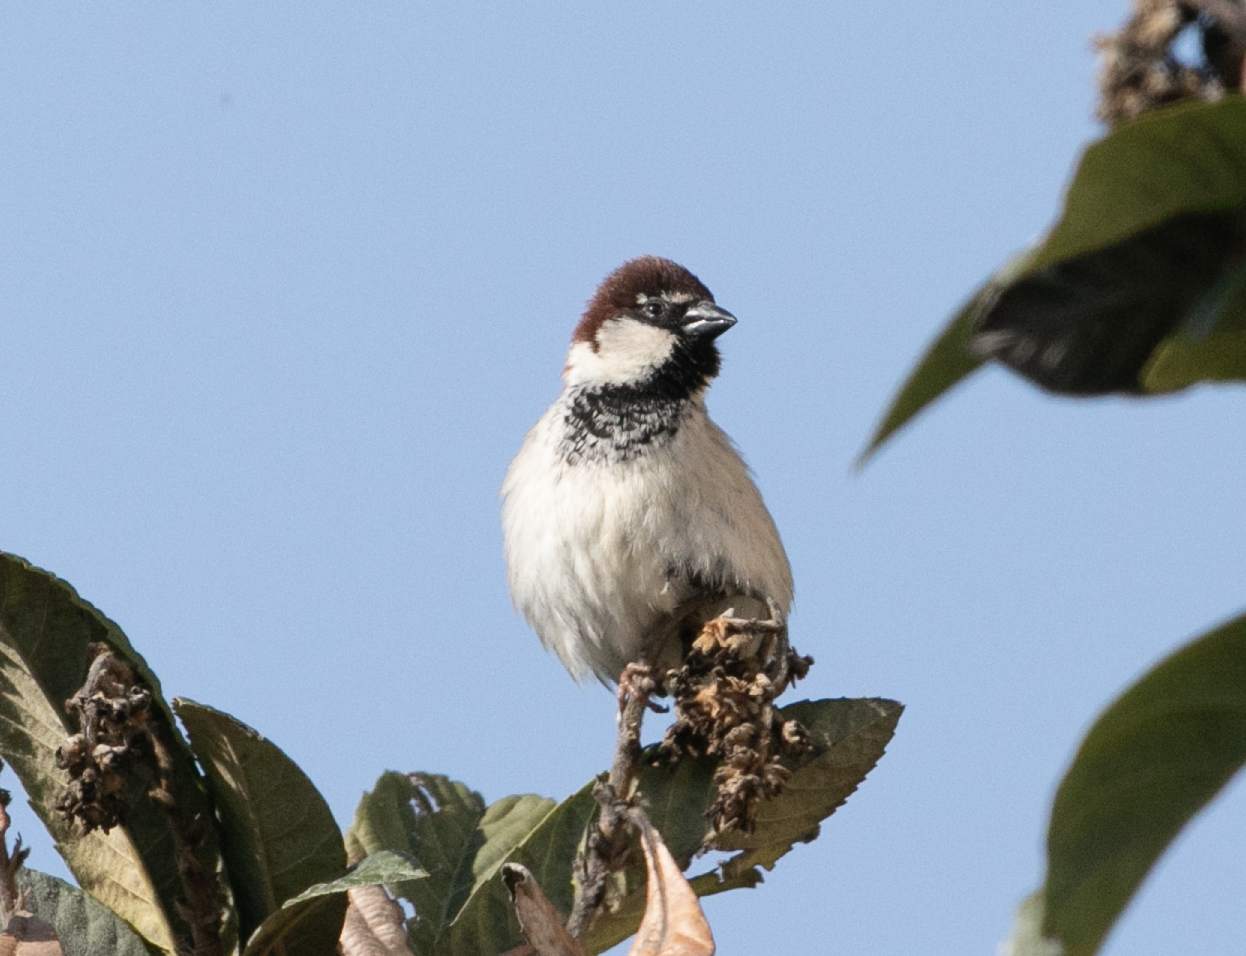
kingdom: Animalia
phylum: Chordata
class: Aves
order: Passeriformes
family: Passeridae
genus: Passer
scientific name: Passer italiae
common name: Italian sparrow
